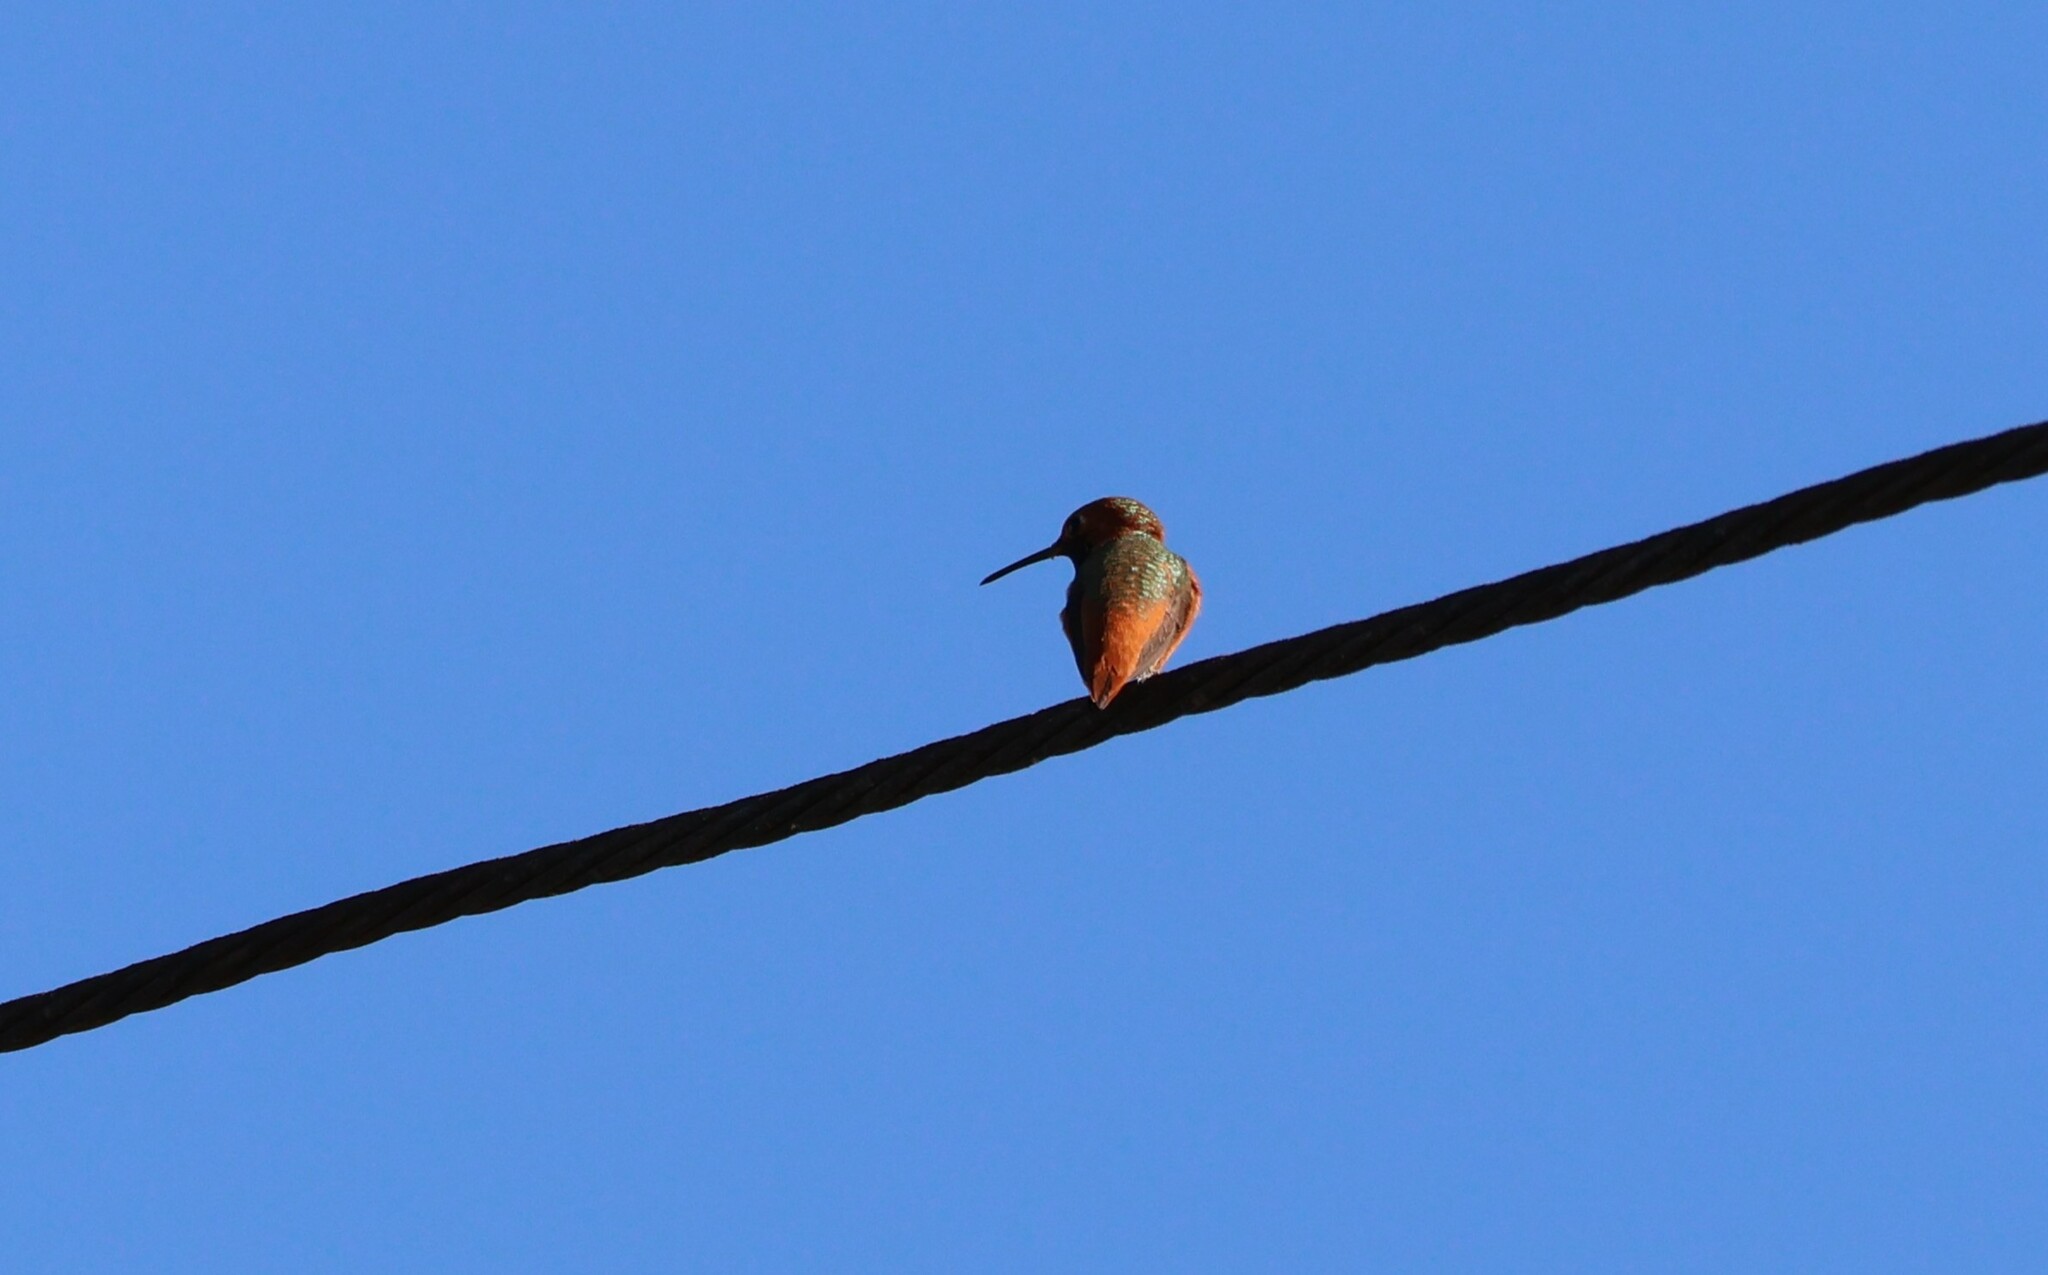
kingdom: Animalia
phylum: Chordata
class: Aves
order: Apodiformes
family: Trochilidae
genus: Selasphorus
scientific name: Selasphorus sasin
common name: Allen's hummingbird
